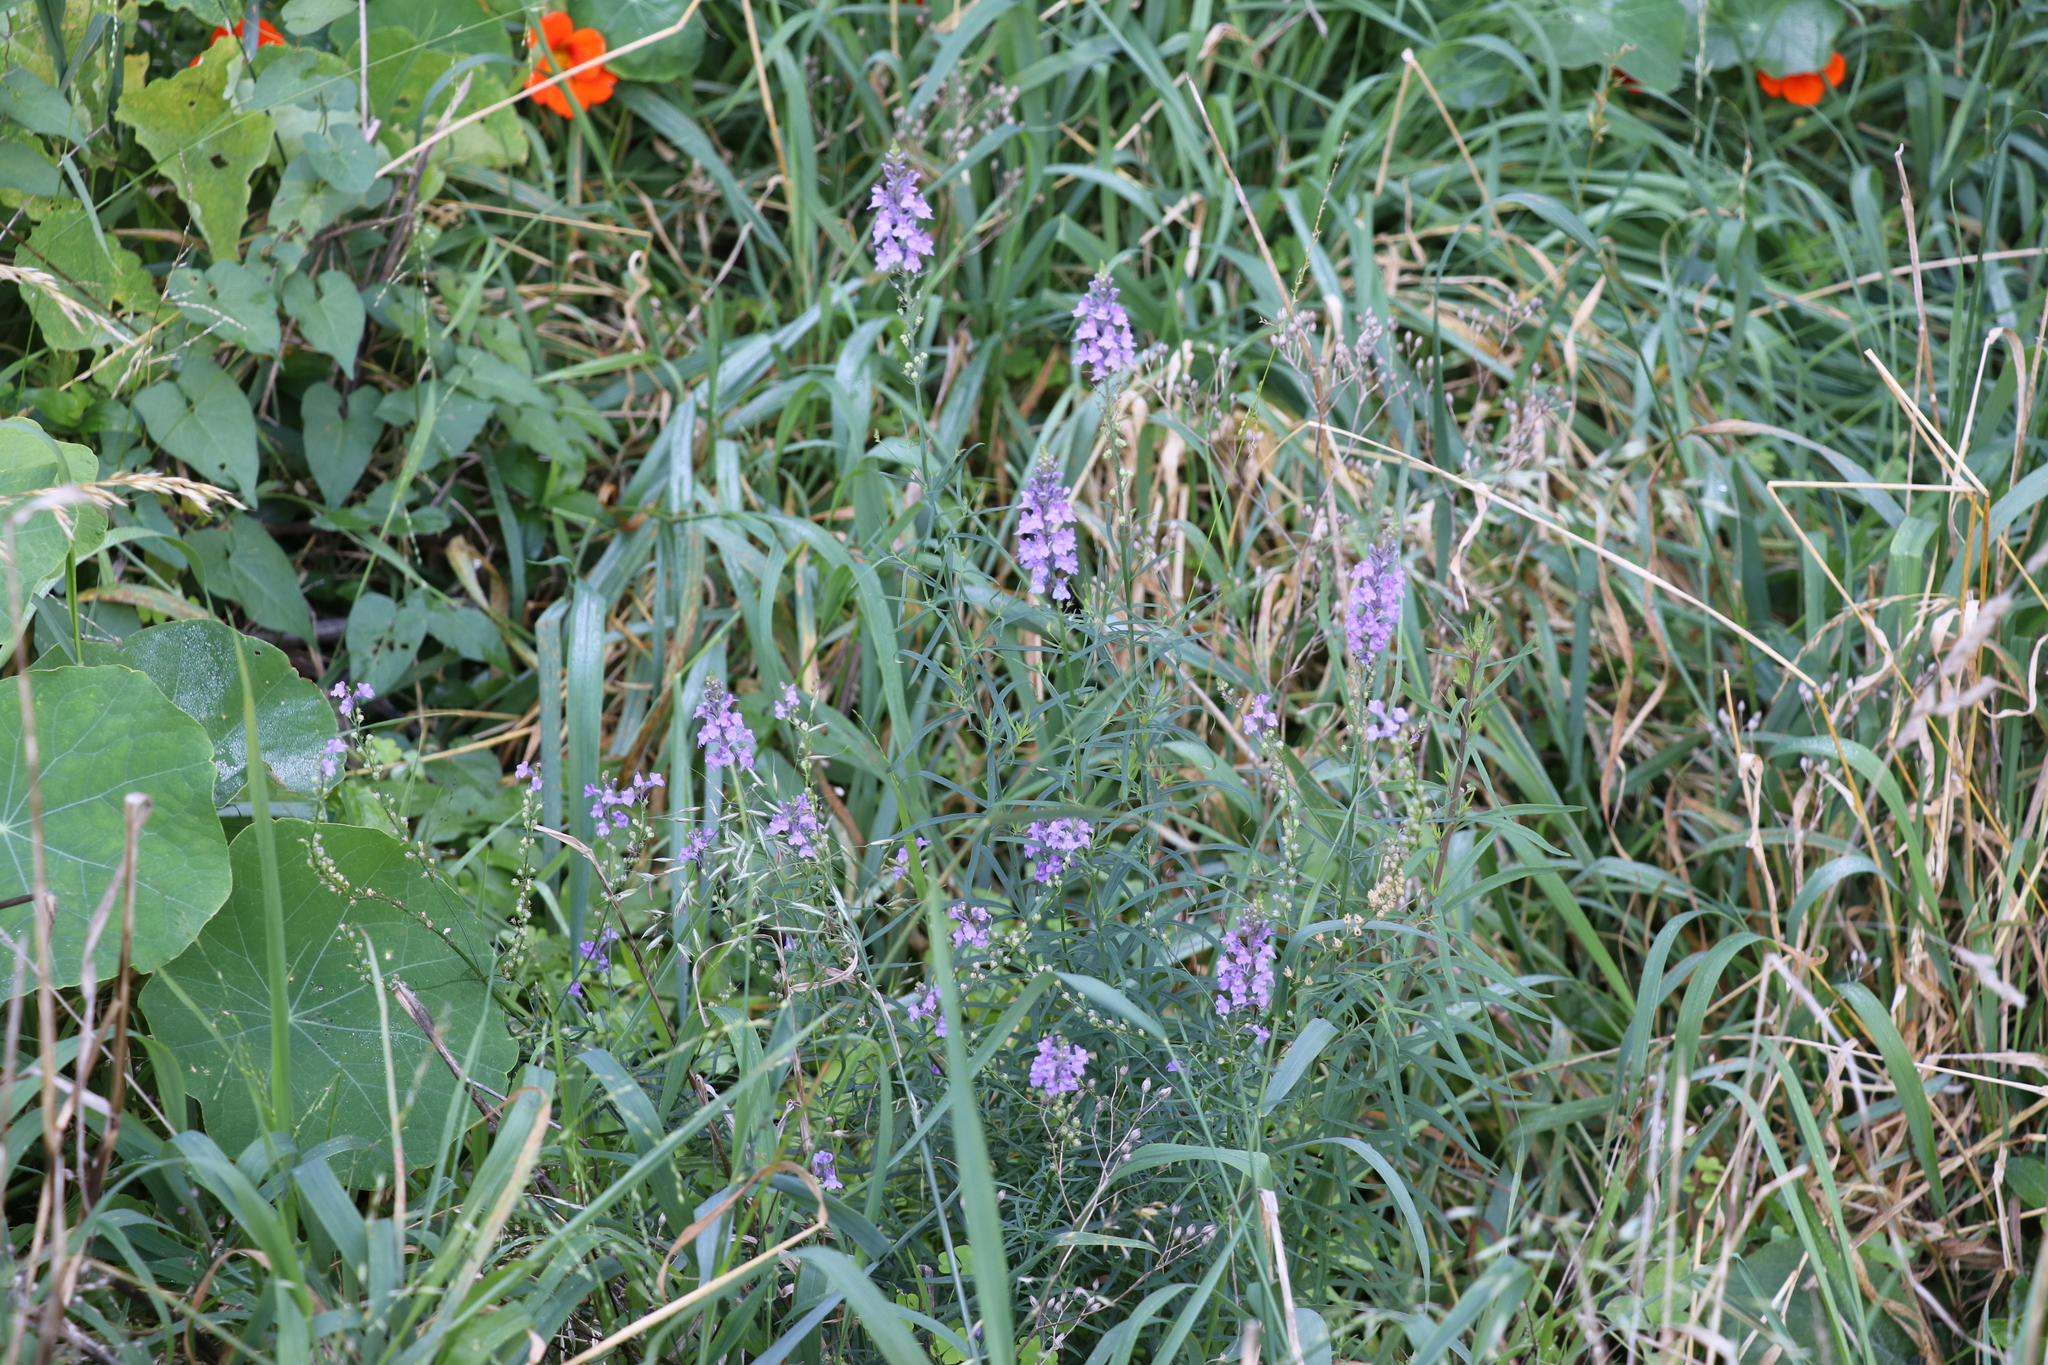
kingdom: Plantae
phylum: Tracheophyta
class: Magnoliopsida
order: Lamiales
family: Plantaginaceae
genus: Linaria
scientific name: Linaria purpurea
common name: Purple toadflax
